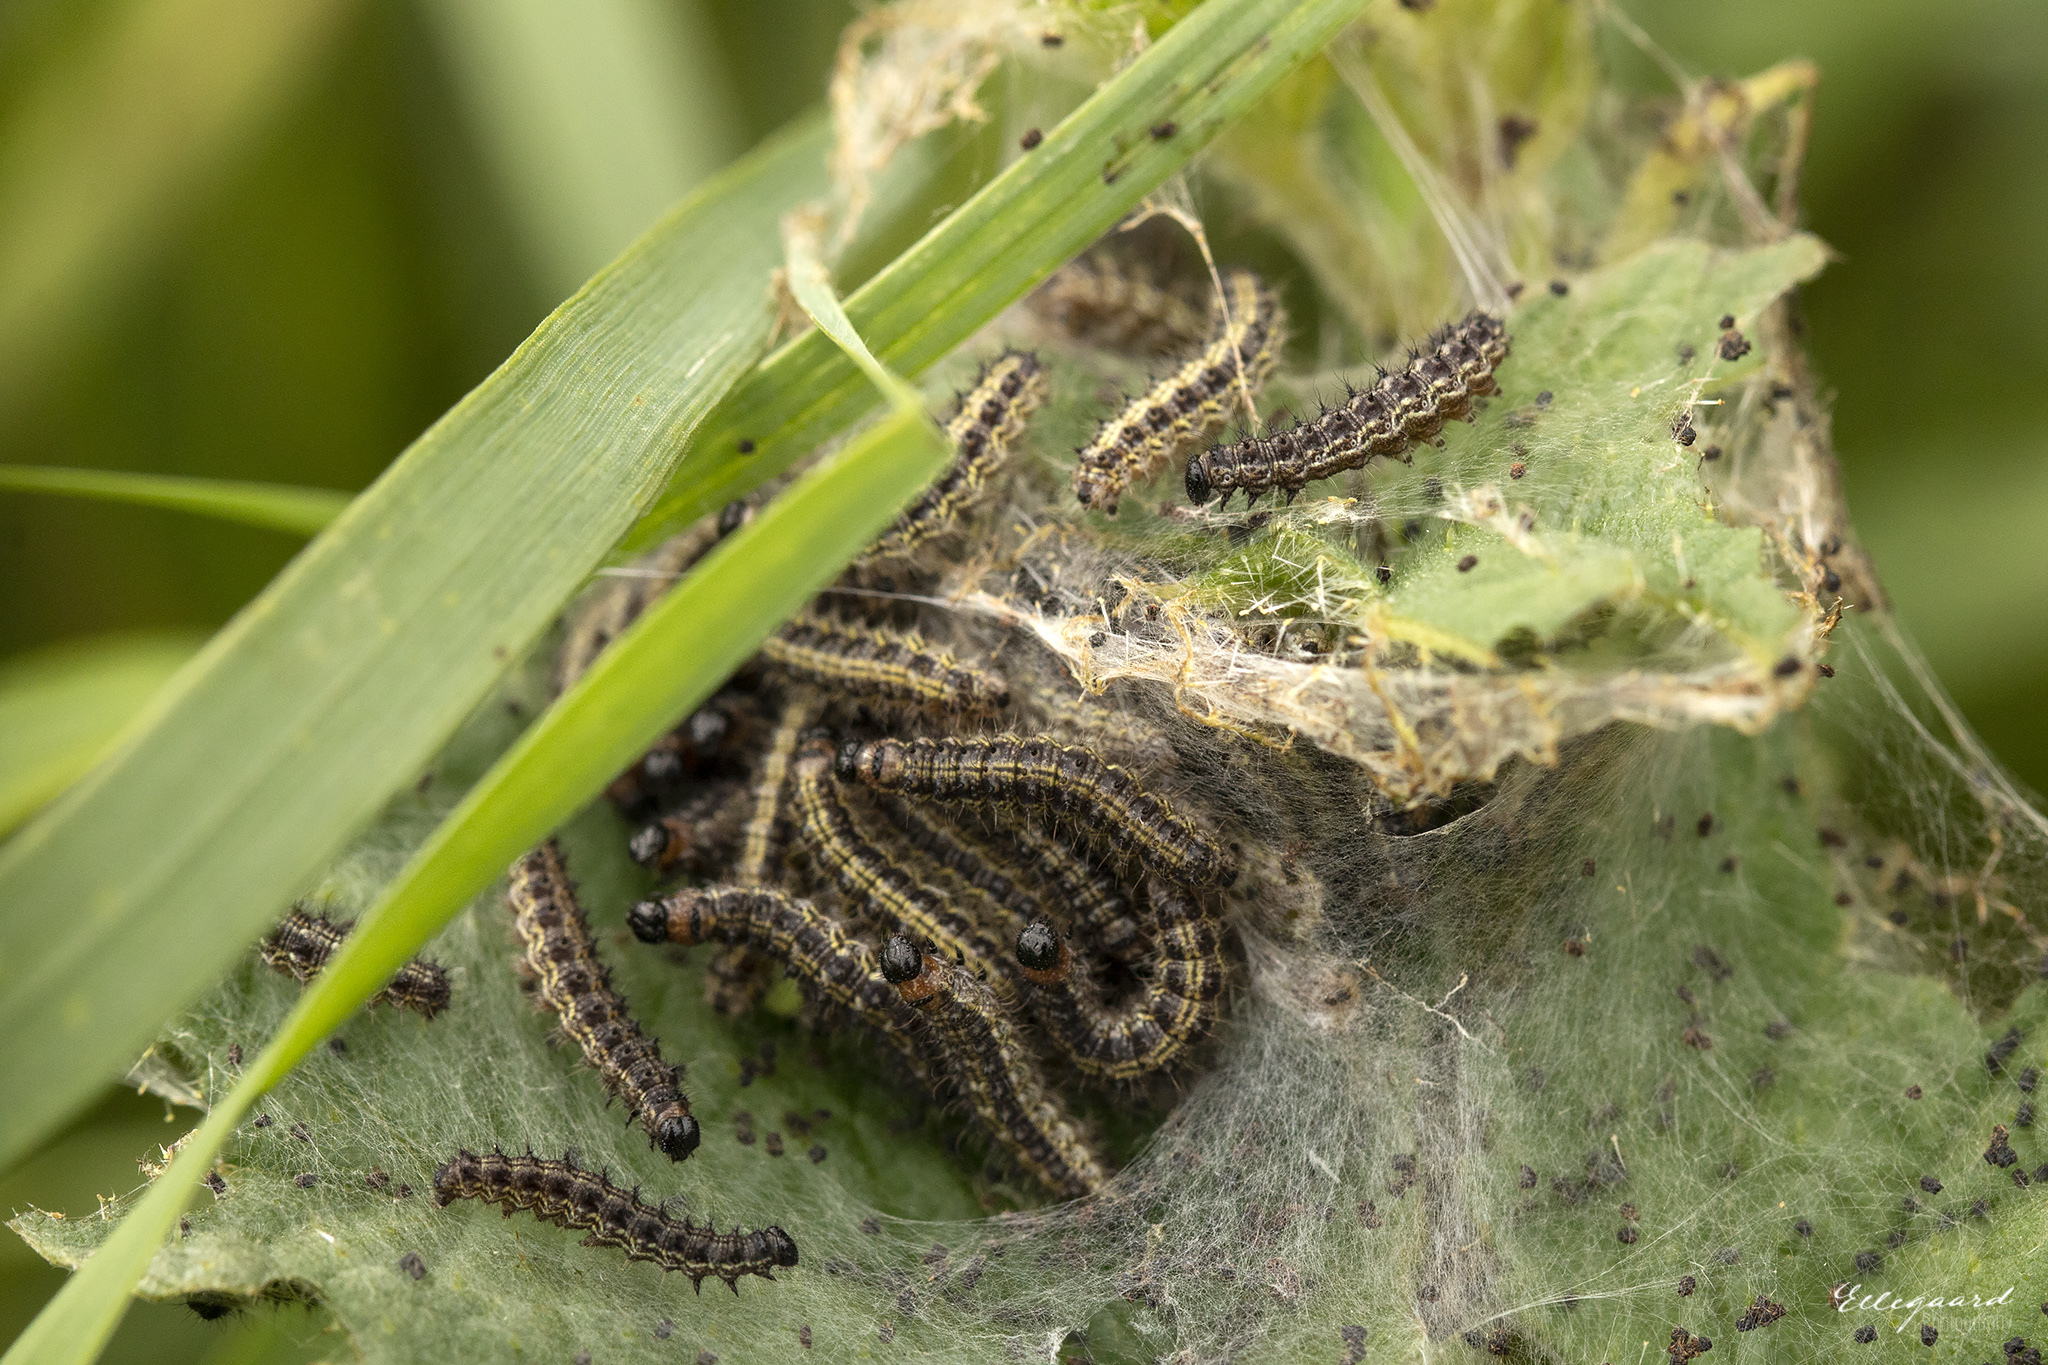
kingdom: Animalia
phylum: Arthropoda
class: Insecta
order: Lepidoptera
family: Nymphalidae
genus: Aglais
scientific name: Aglais urticae
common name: Small tortoiseshell
